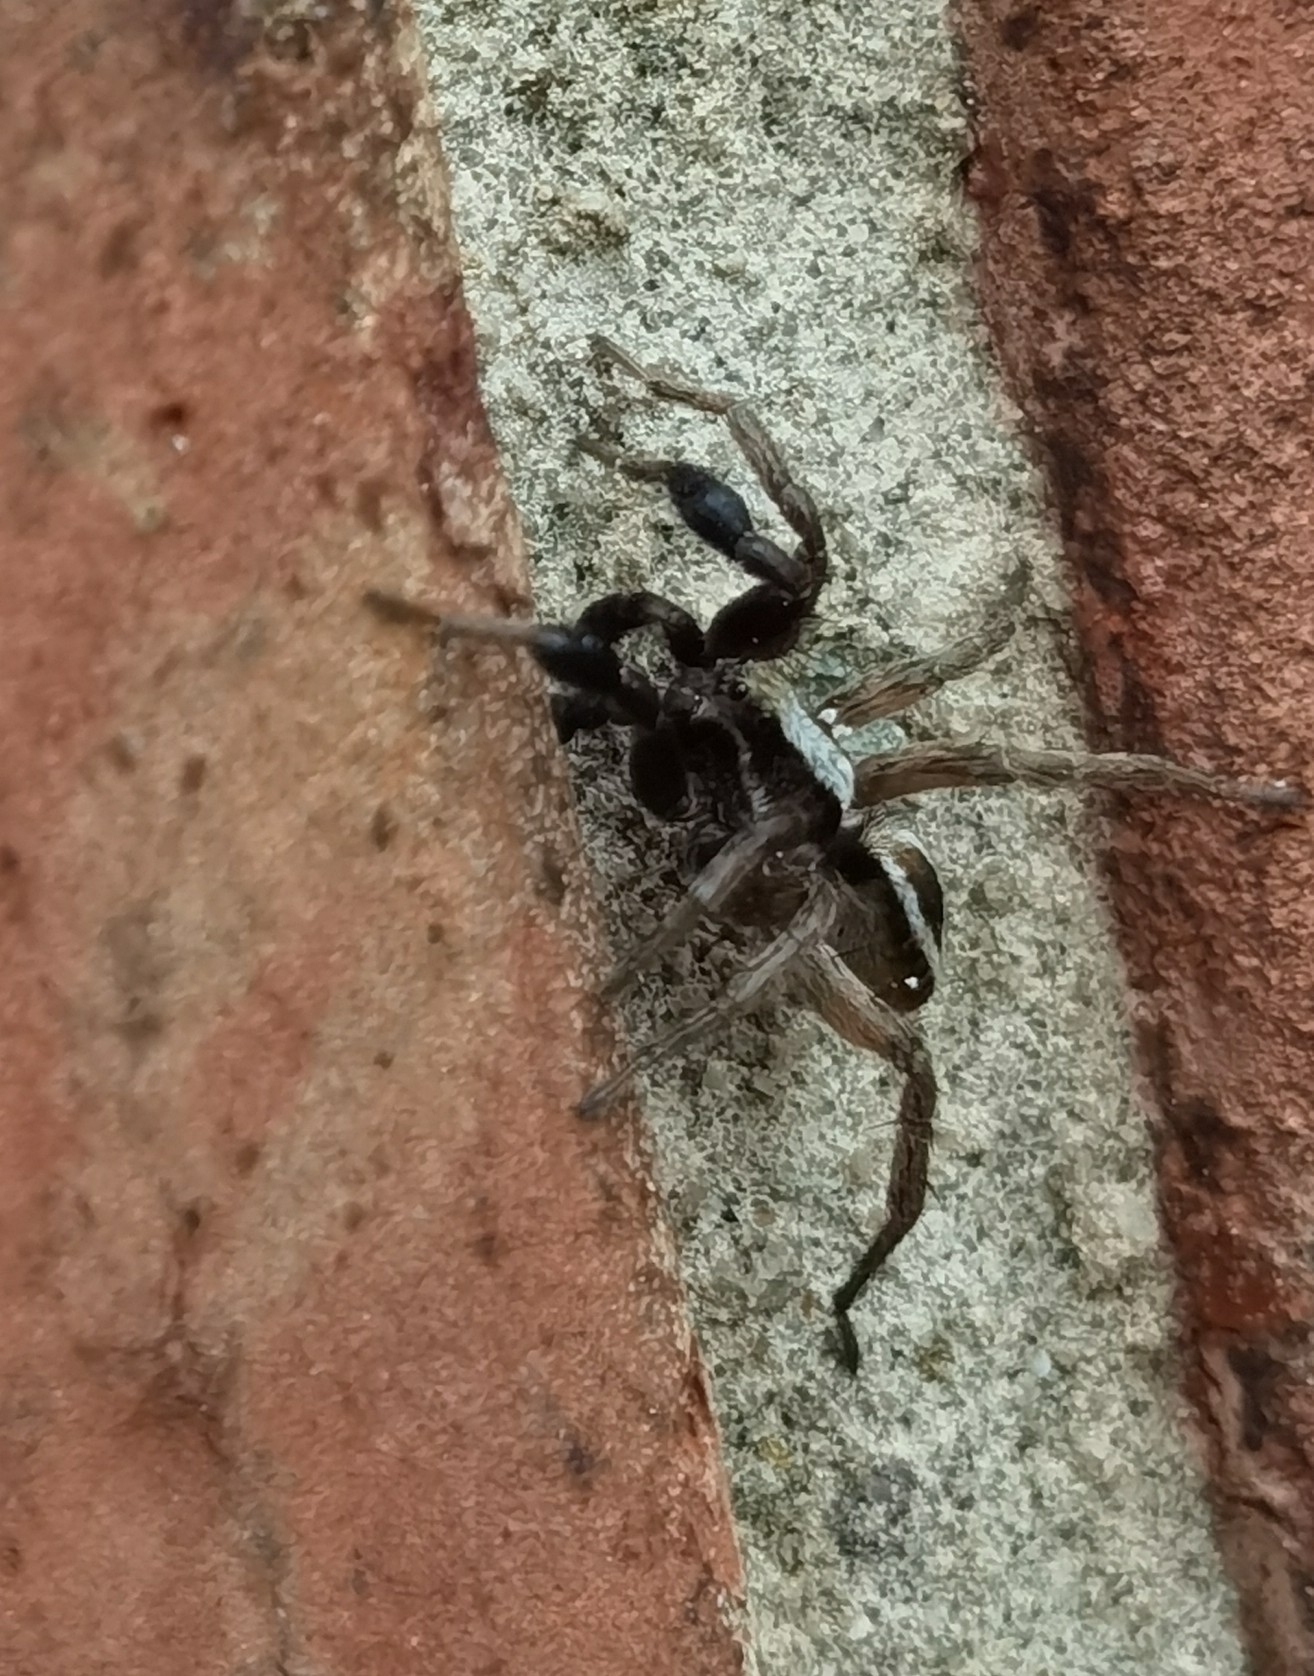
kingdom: Animalia
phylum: Arthropoda
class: Arachnida
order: Araneae
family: Lycosidae
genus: Alopecosa
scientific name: Alopecosa cuneata
